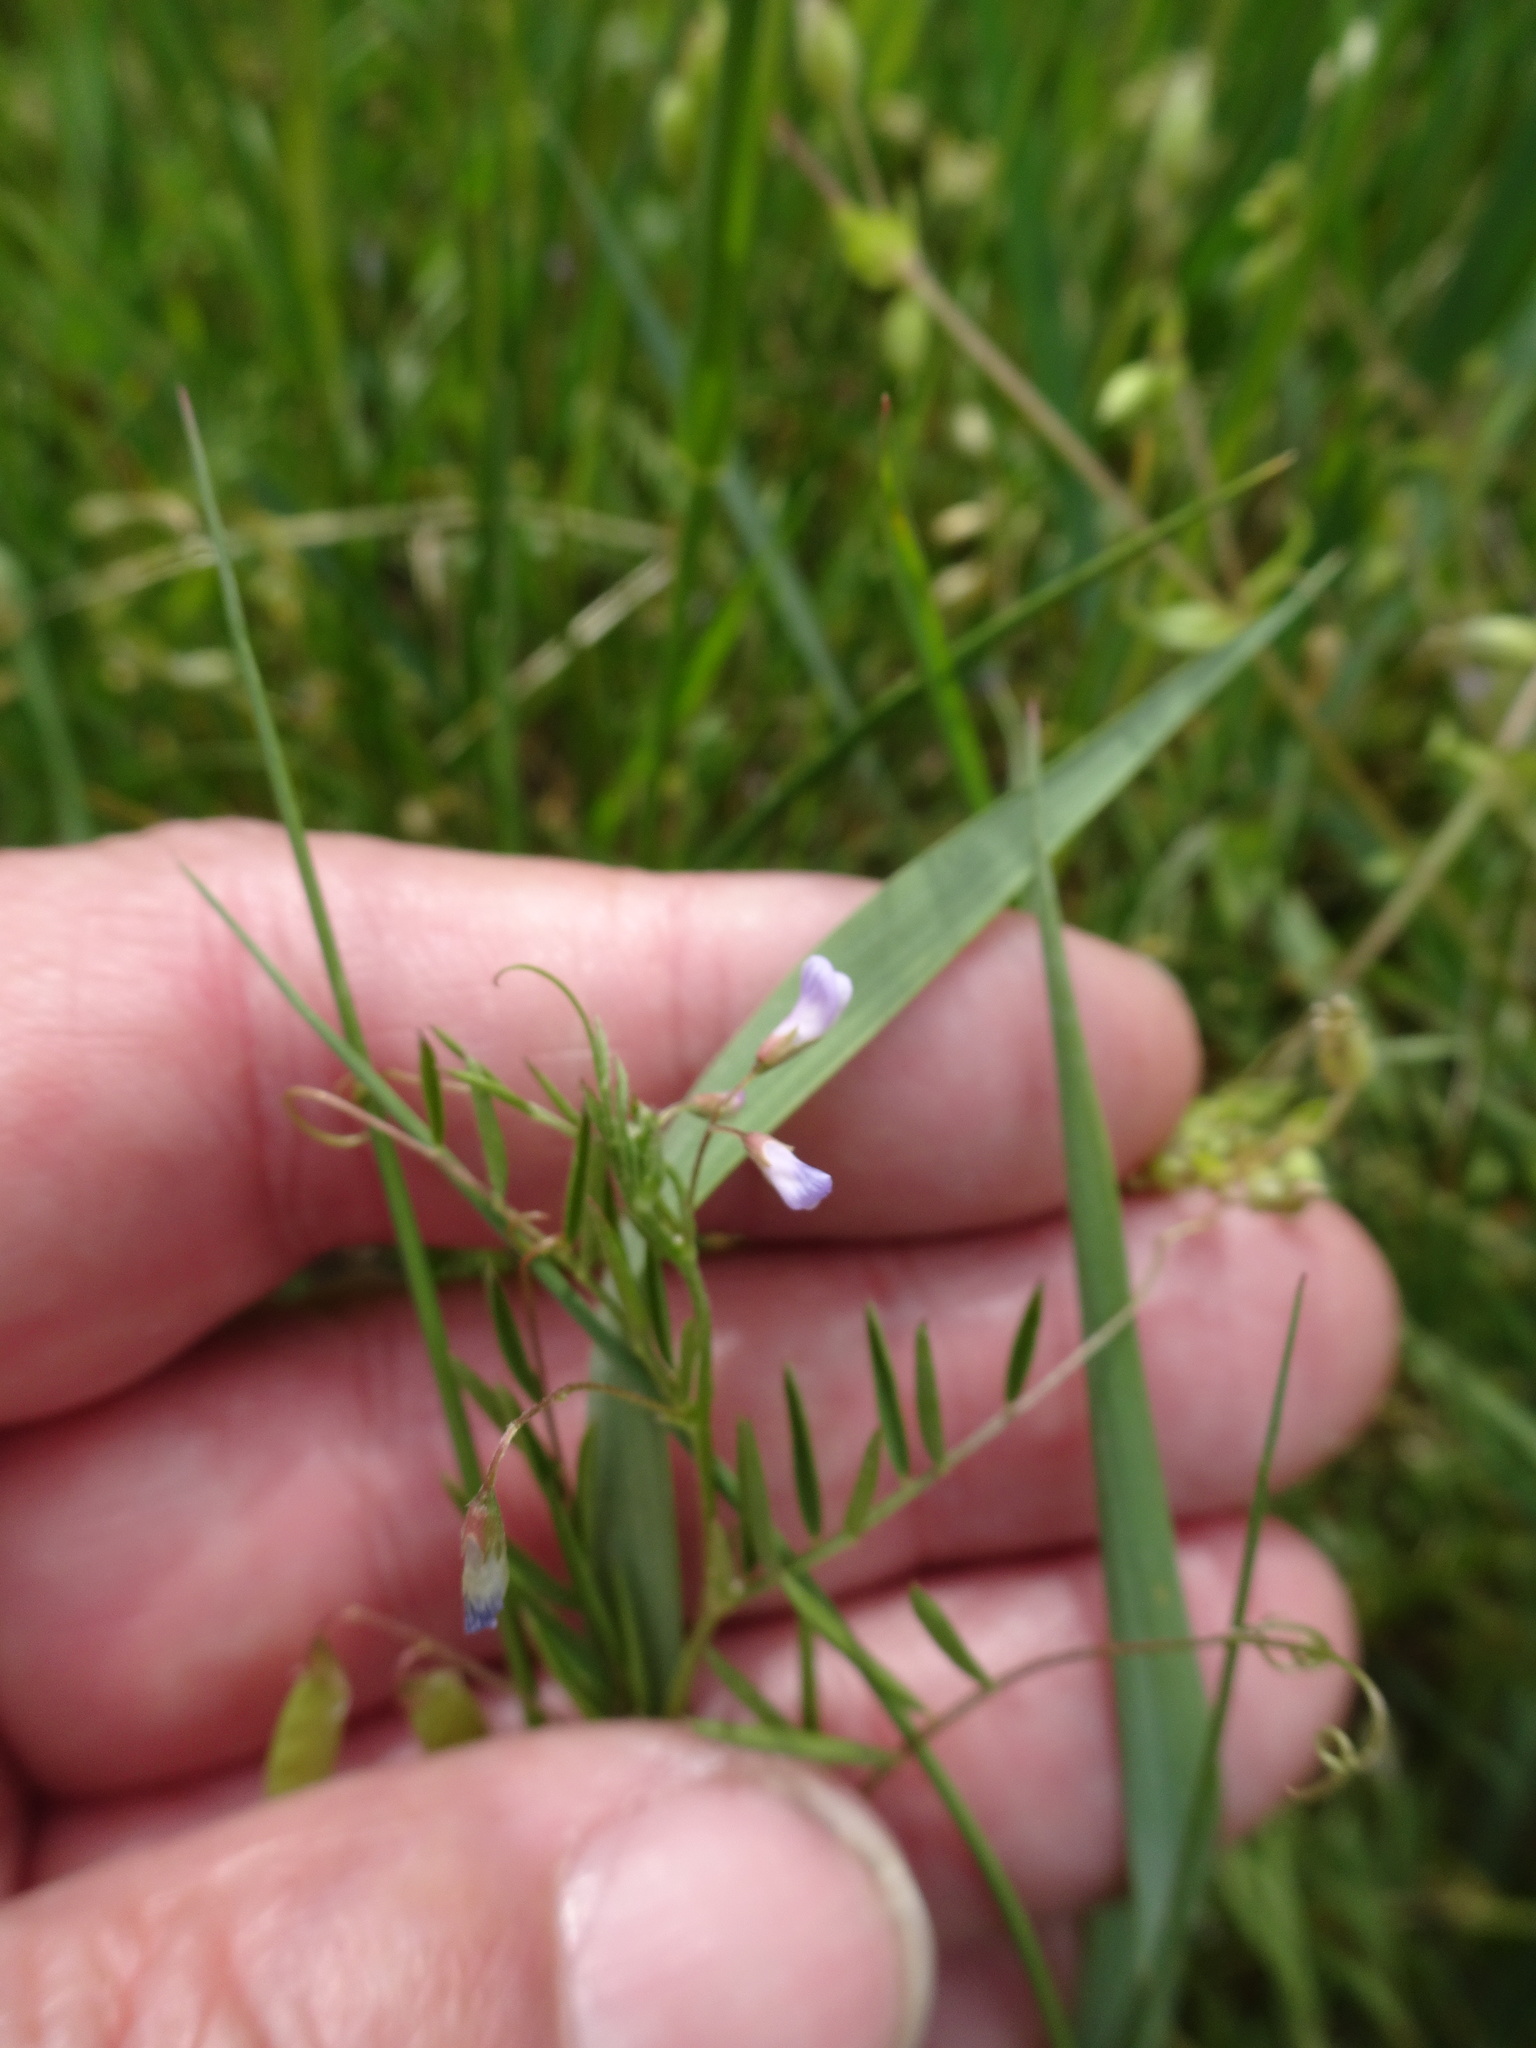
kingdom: Plantae
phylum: Tracheophyta
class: Magnoliopsida
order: Fabales
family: Fabaceae
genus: Vicia
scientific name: Vicia tetrasperma
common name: Smooth tare
